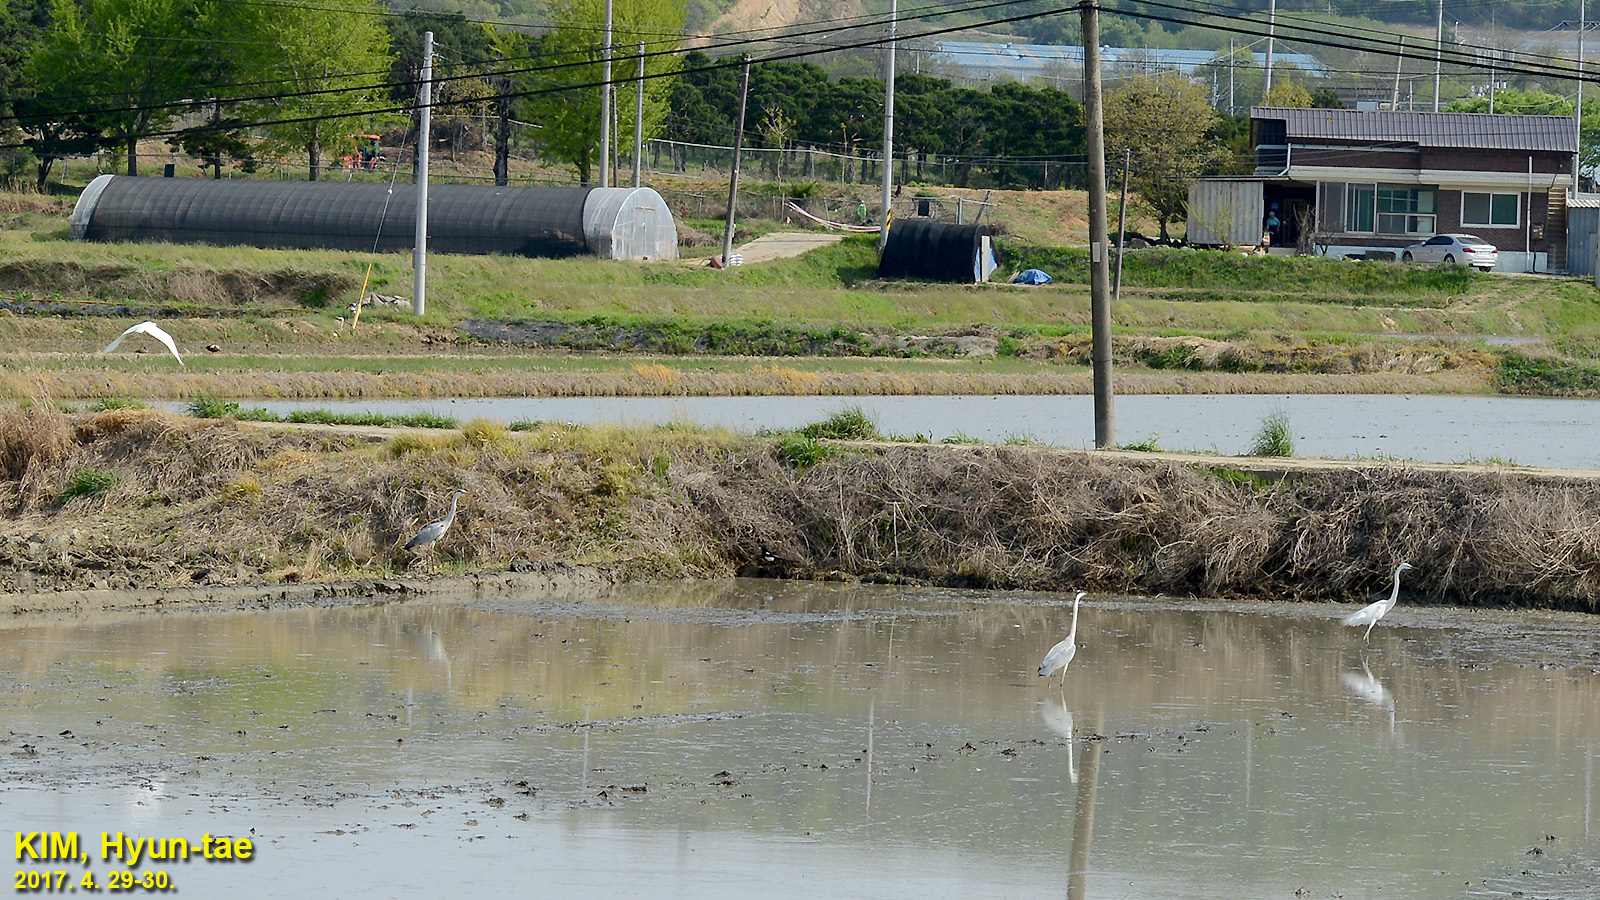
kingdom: Animalia
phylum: Chordata
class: Aves
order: Pelecaniformes
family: Ardeidae
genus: Ardea
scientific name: Ardea modesta
